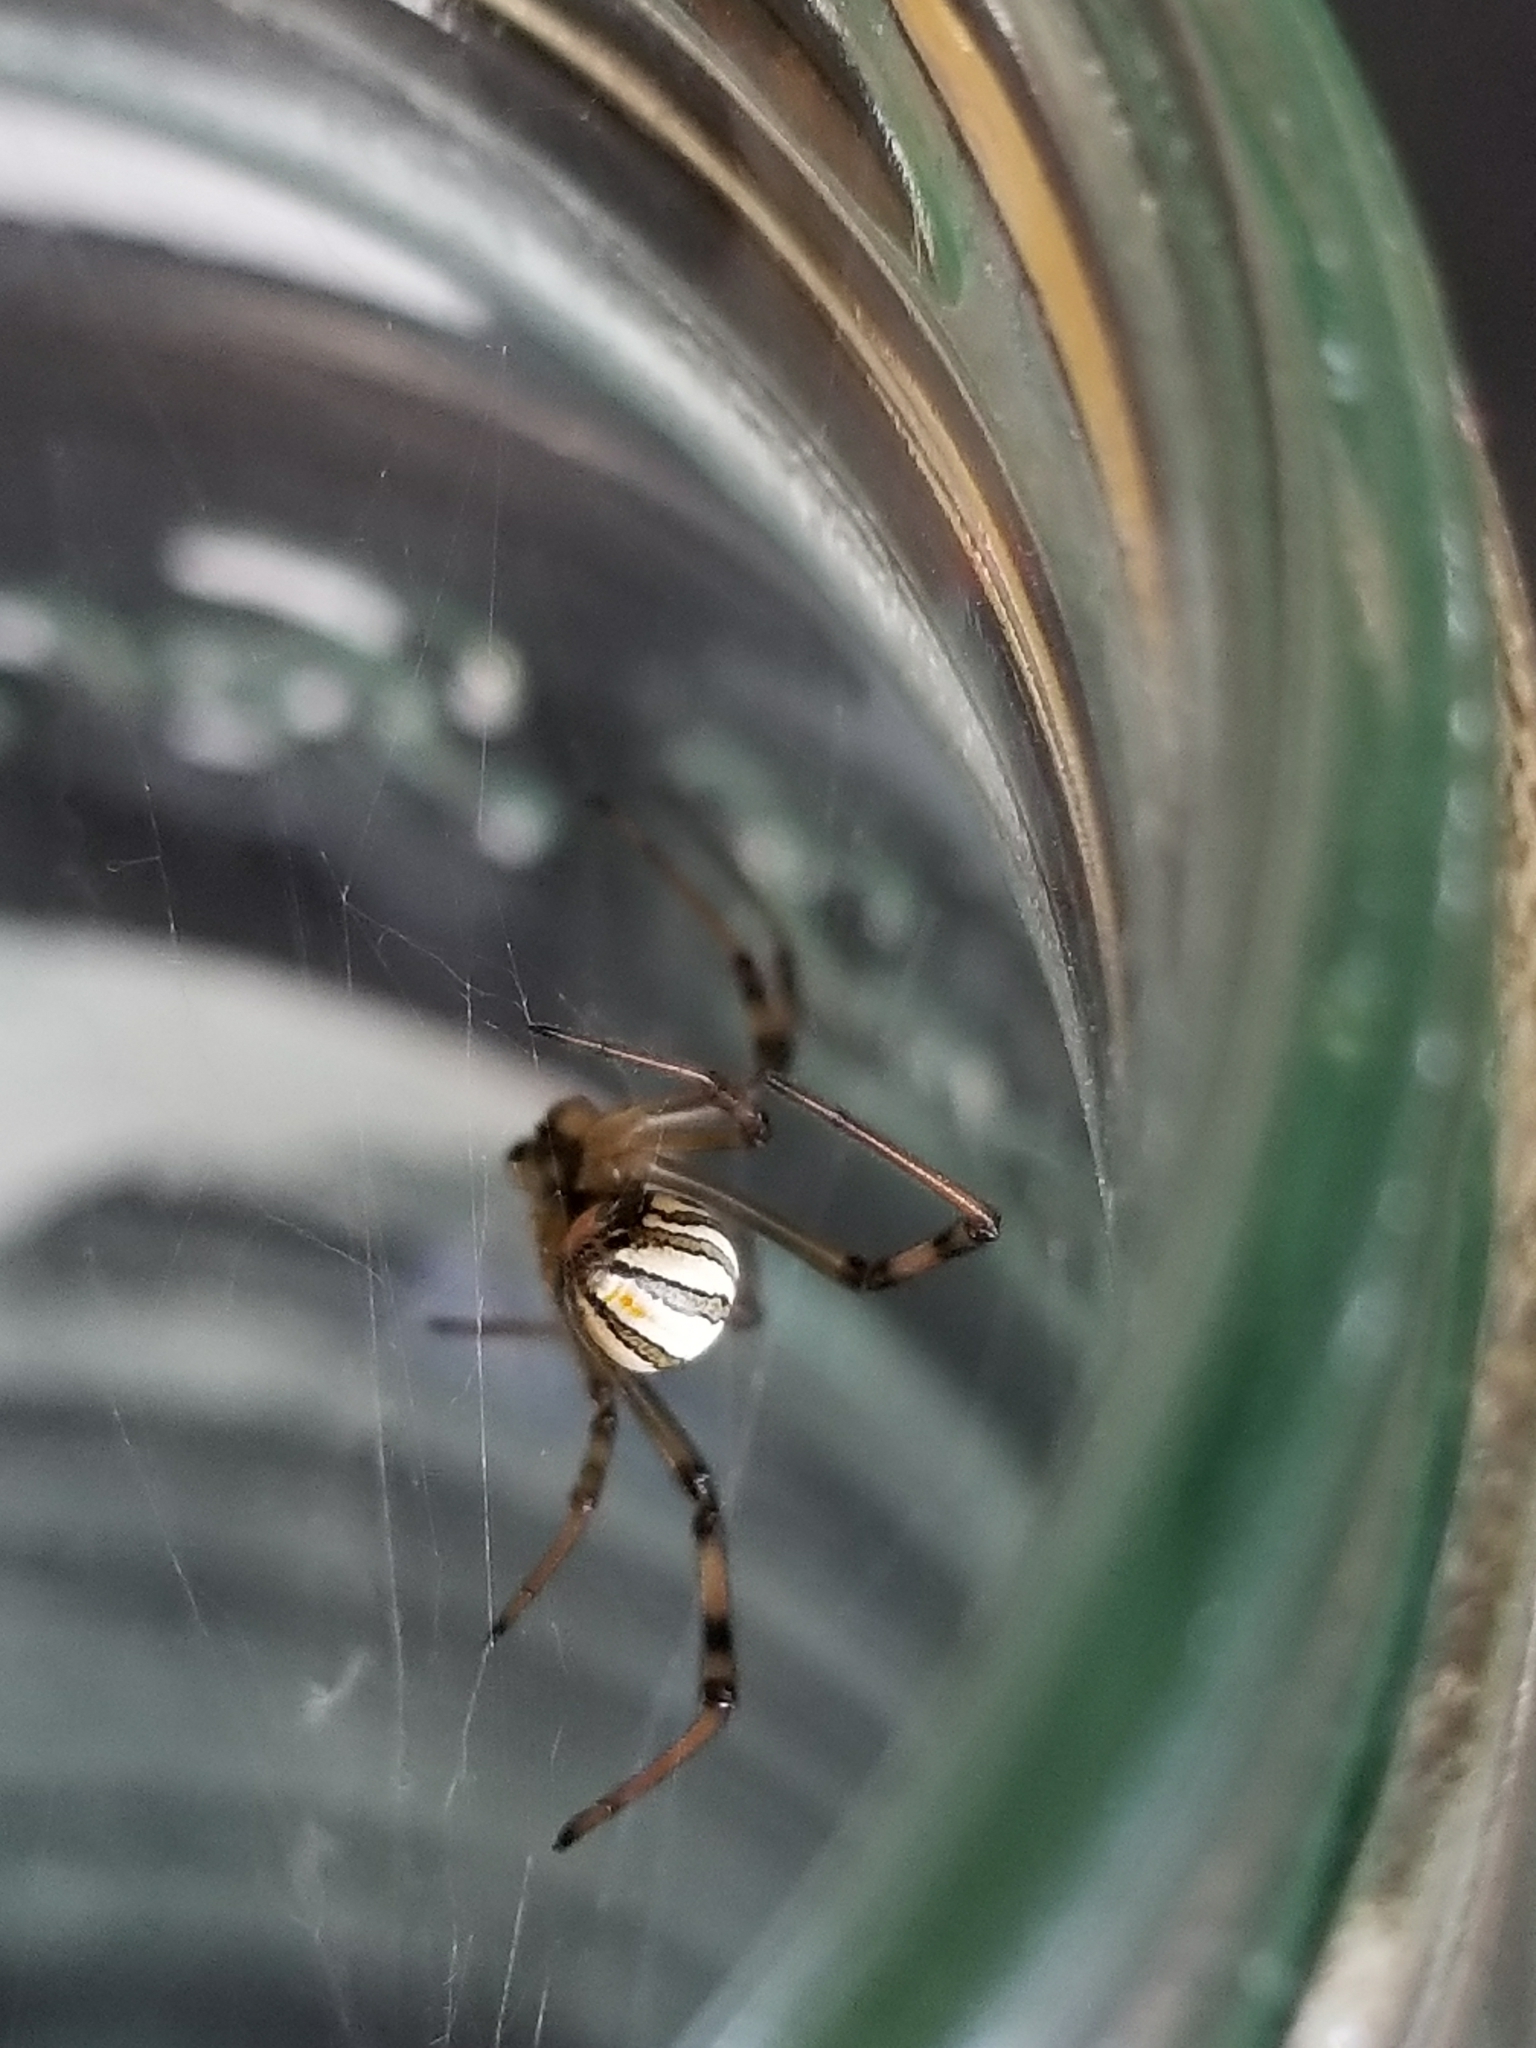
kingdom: Animalia
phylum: Arthropoda
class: Arachnida
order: Araneae
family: Theridiidae
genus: Latrodectus
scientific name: Latrodectus hesperus
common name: Western black widow
